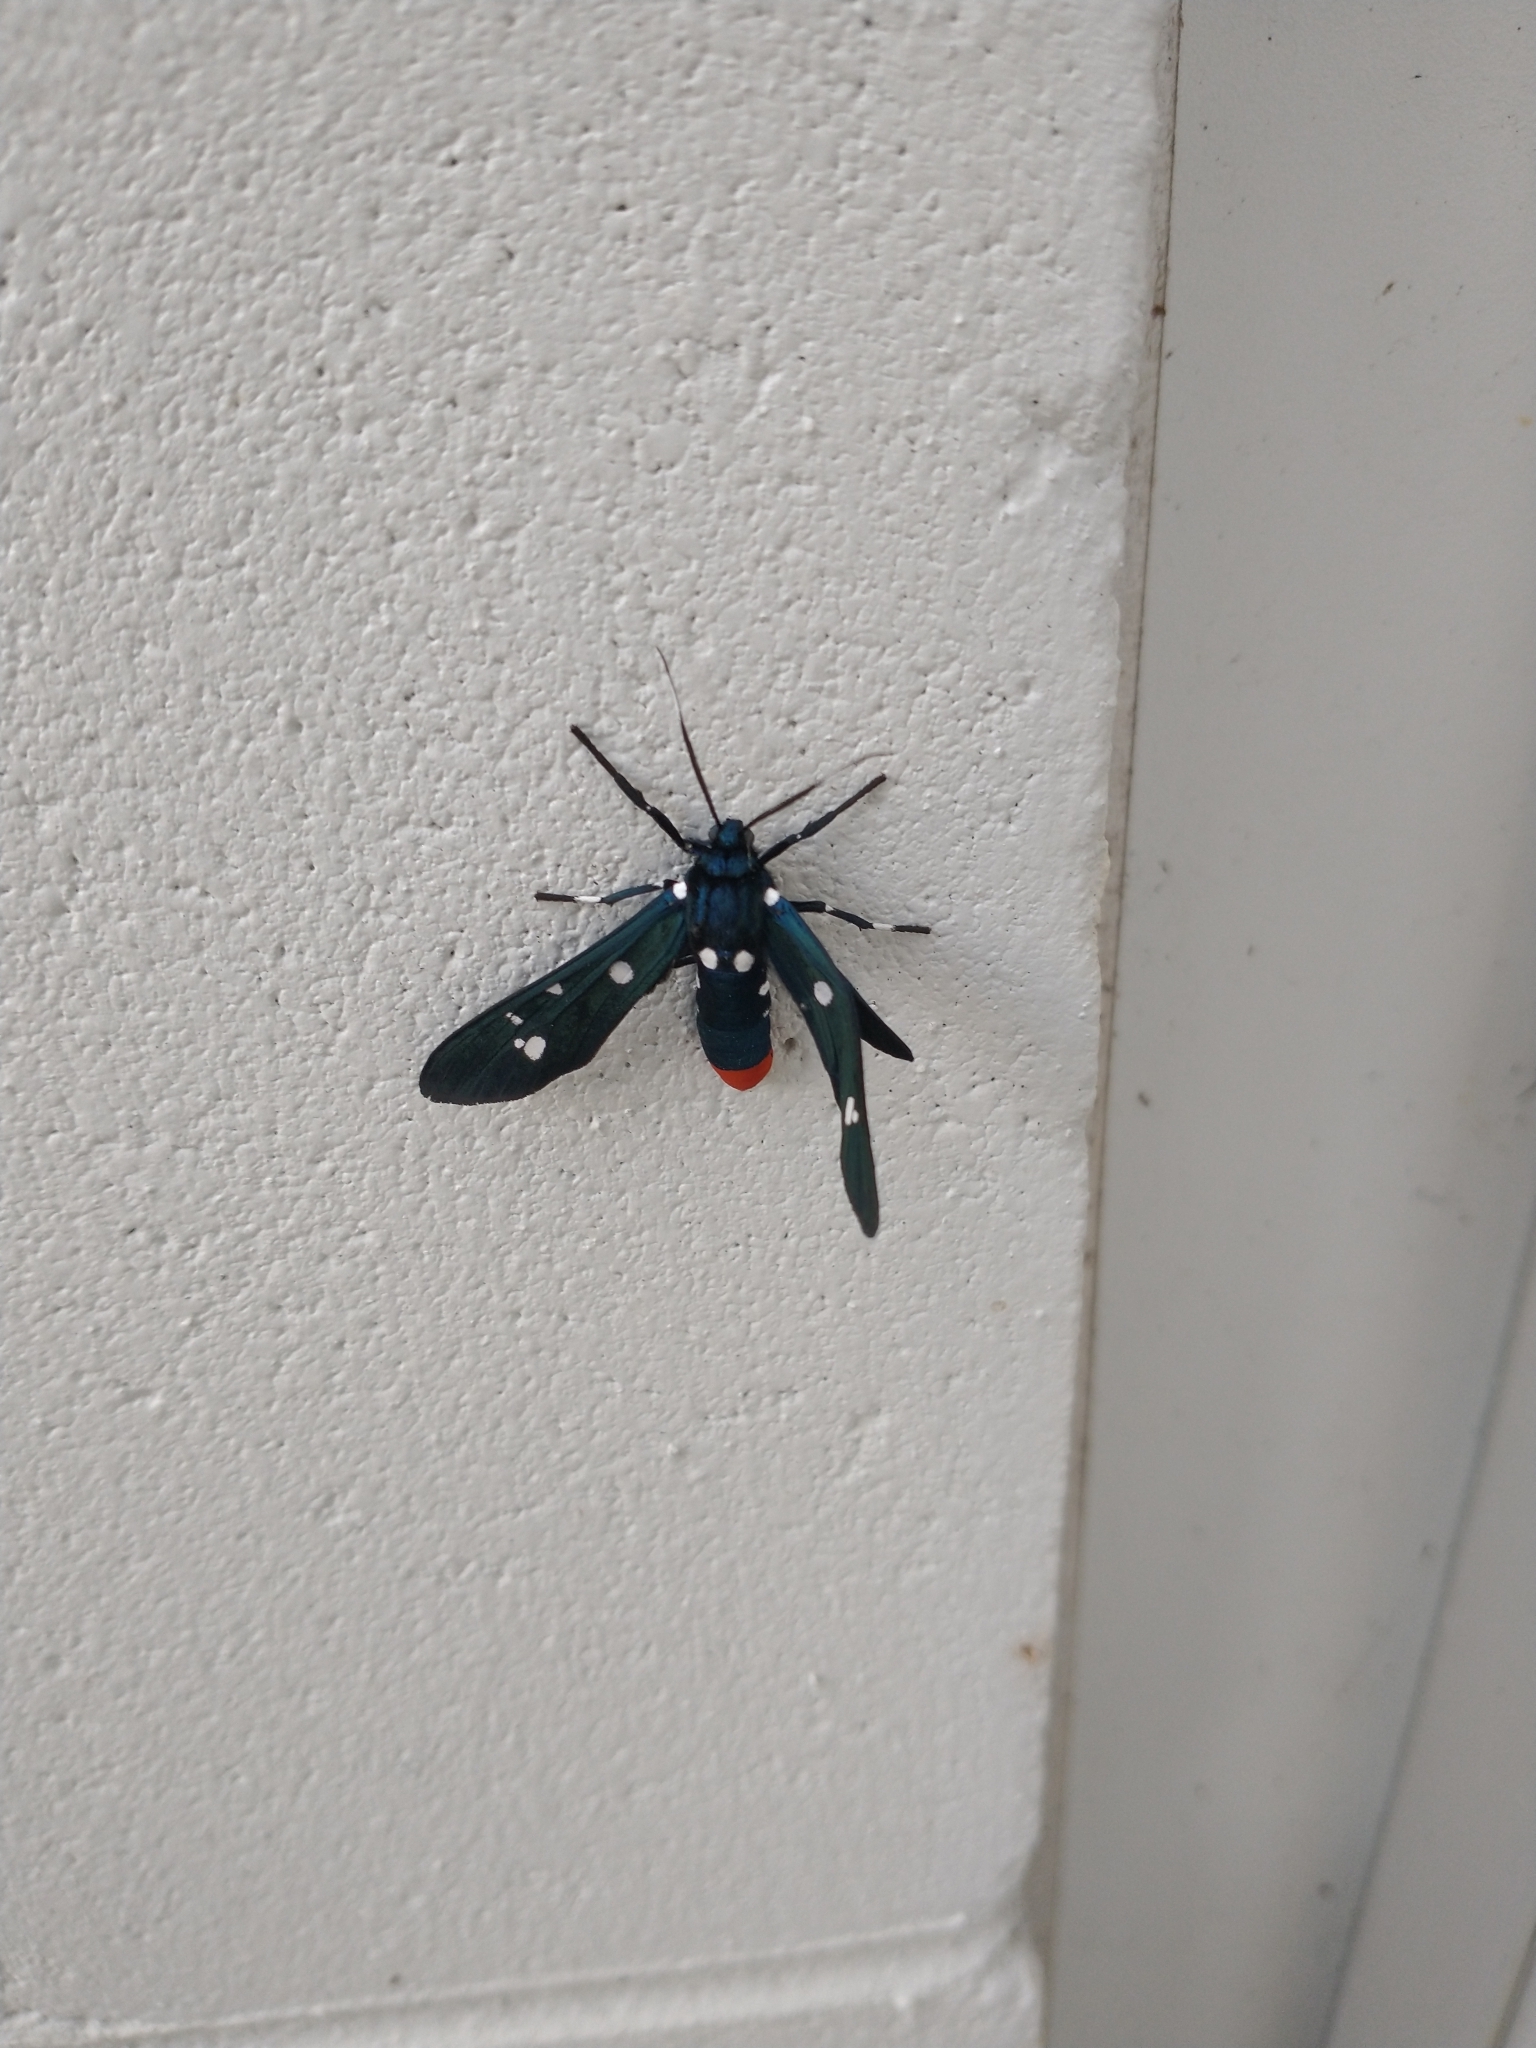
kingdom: Animalia
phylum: Arthropoda
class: Insecta
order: Lepidoptera
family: Erebidae
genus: Syntomeida
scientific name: Syntomeida epilais
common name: Polka-dot wasp moth
